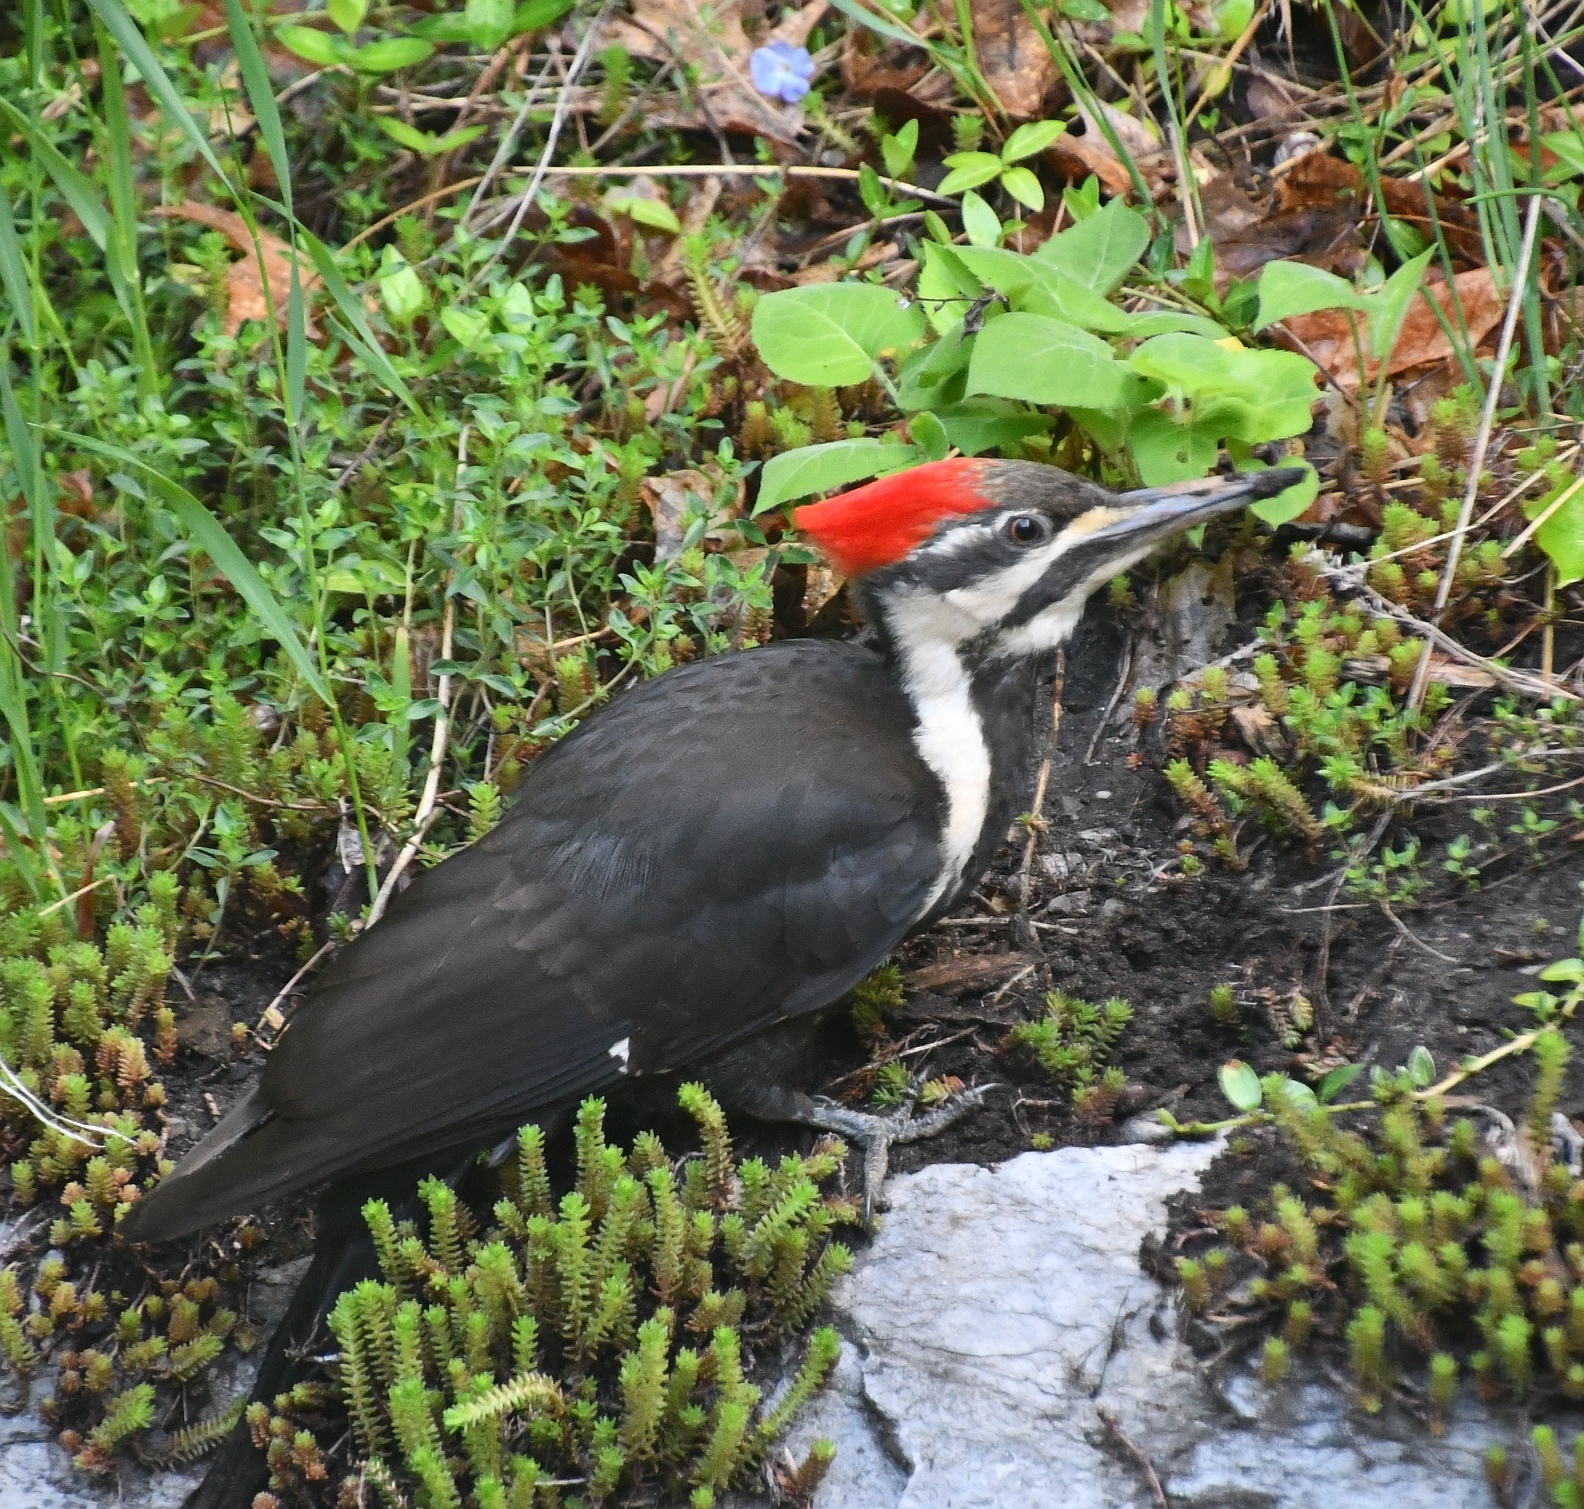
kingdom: Animalia
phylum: Chordata
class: Aves
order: Piciformes
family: Picidae
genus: Dryocopus
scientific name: Dryocopus pileatus
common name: Pileated woodpecker
